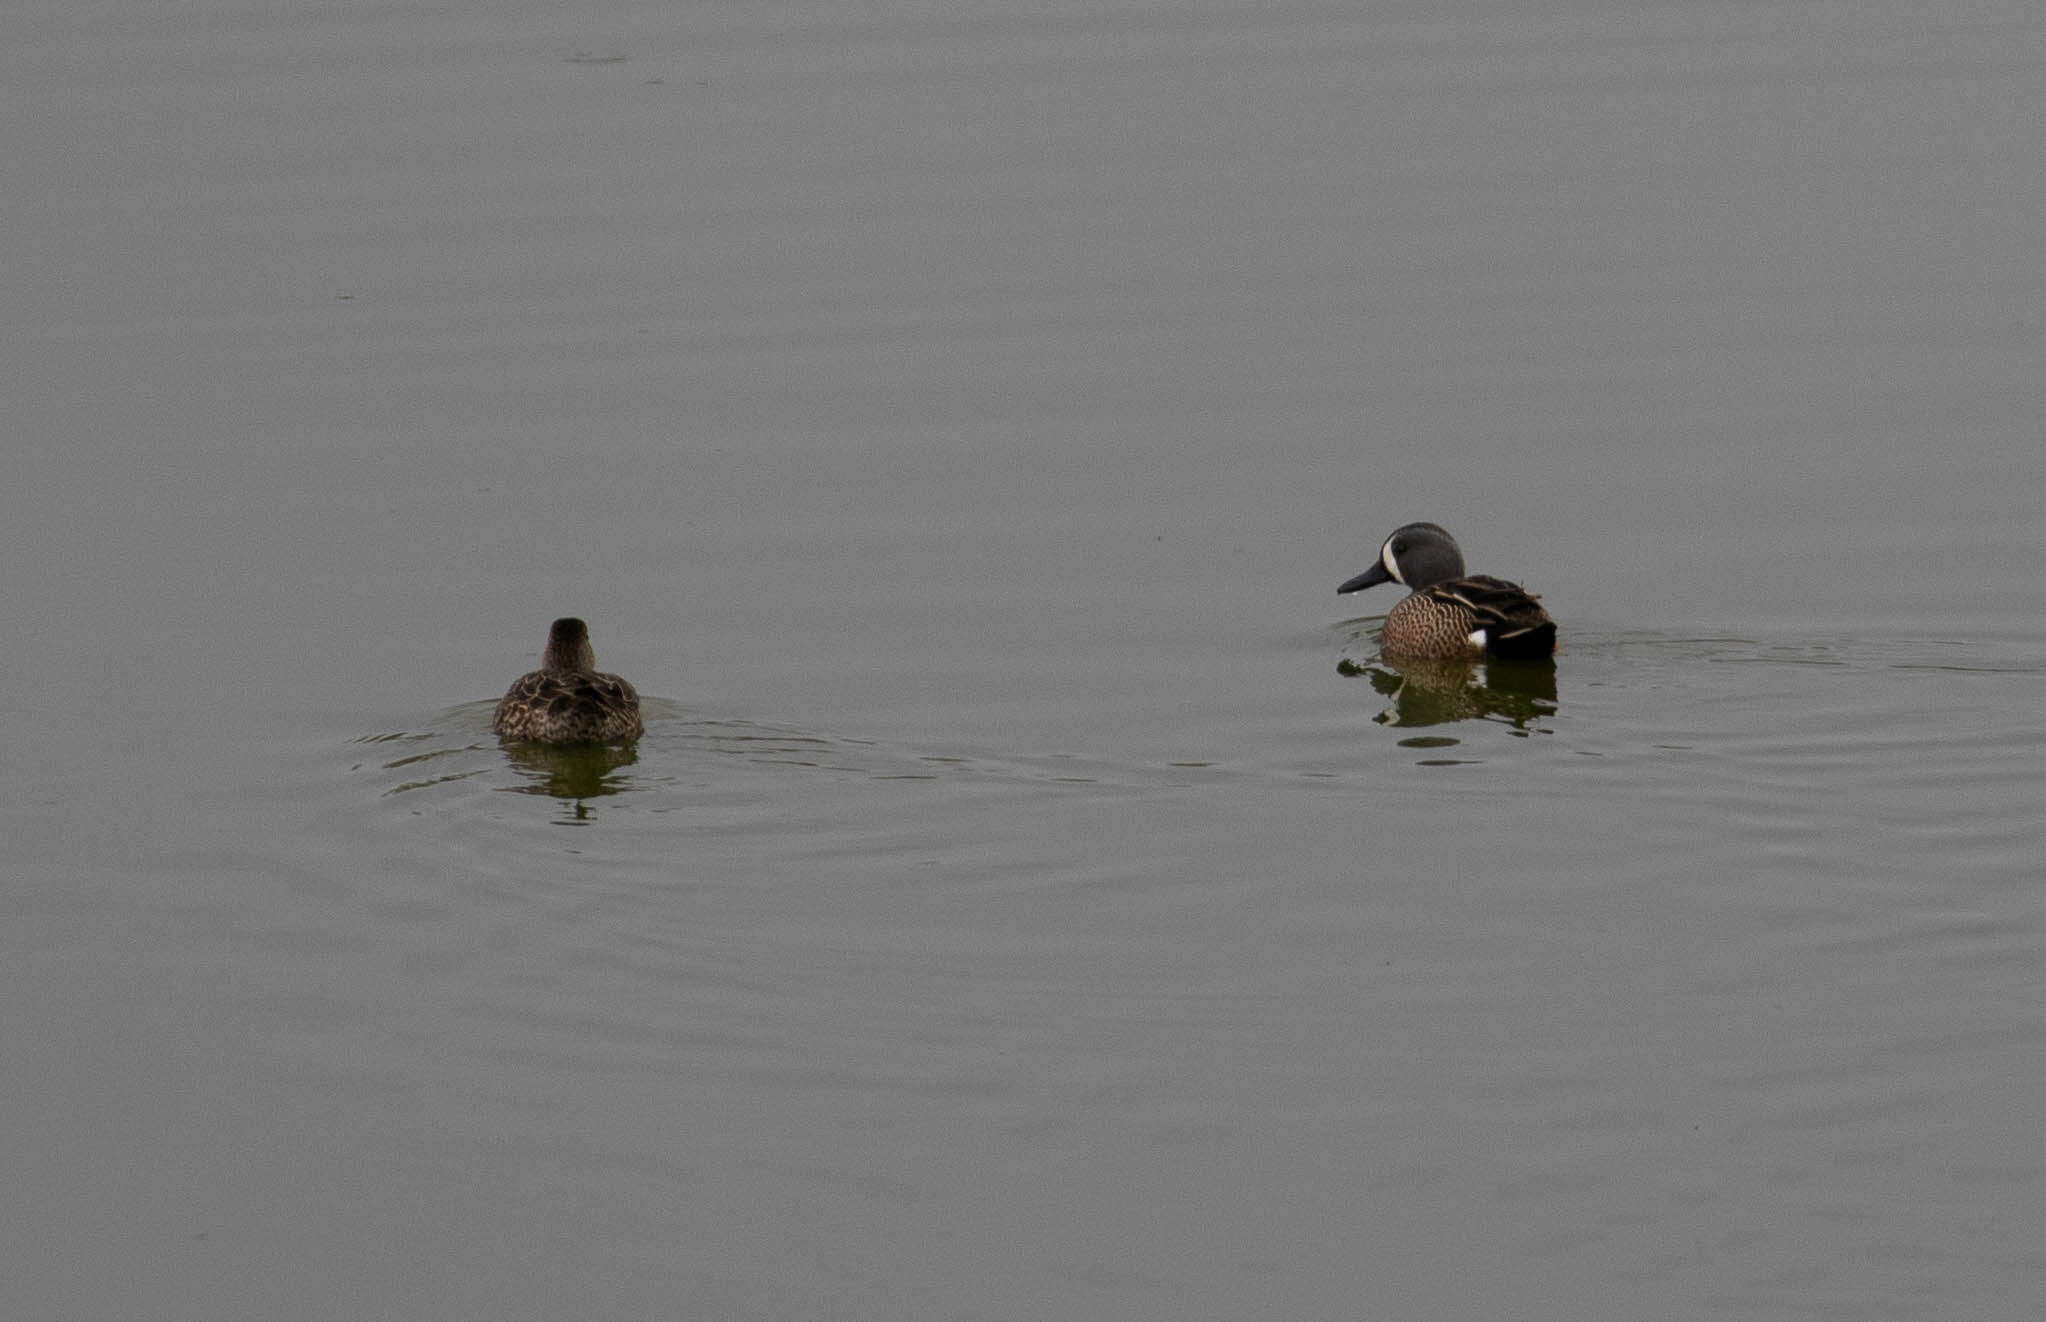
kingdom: Animalia
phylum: Chordata
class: Aves
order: Anseriformes
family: Anatidae
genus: Spatula
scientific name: Spatula discors
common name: Blue-winged teal
